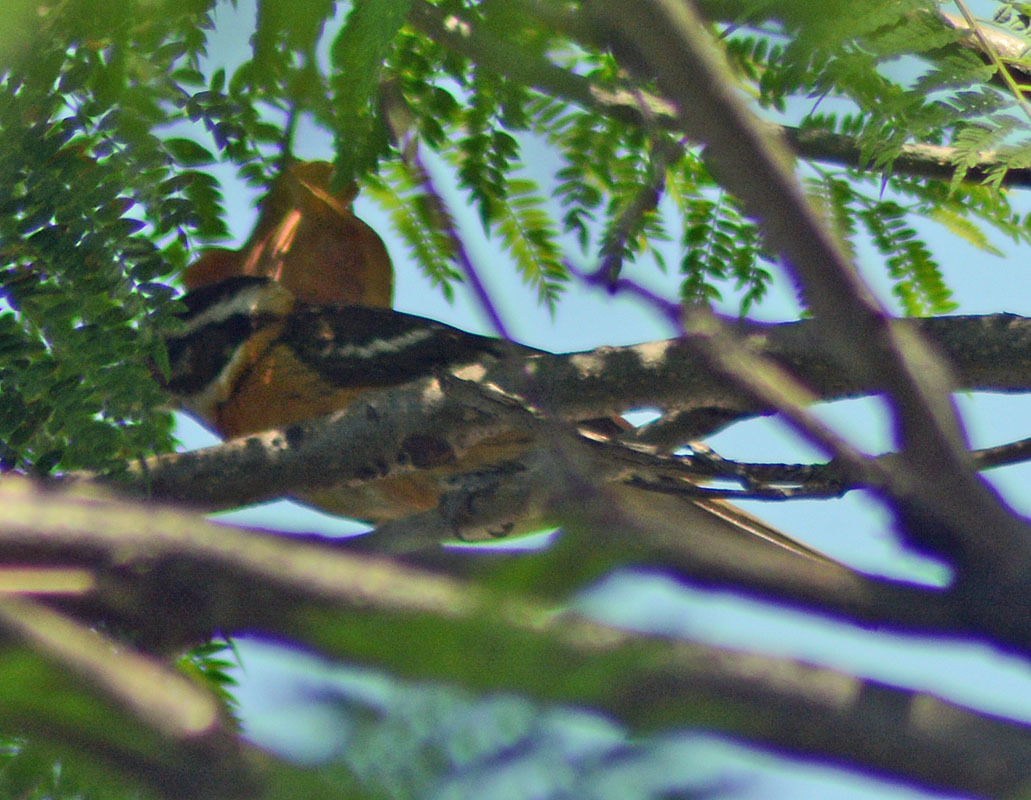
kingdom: Animalia
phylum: Chordata
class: Aves
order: Passeriformes
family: Cardinalidae
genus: Pheucticus
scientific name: Pheucticus melanocephalus
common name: Black-headed grosbeak
